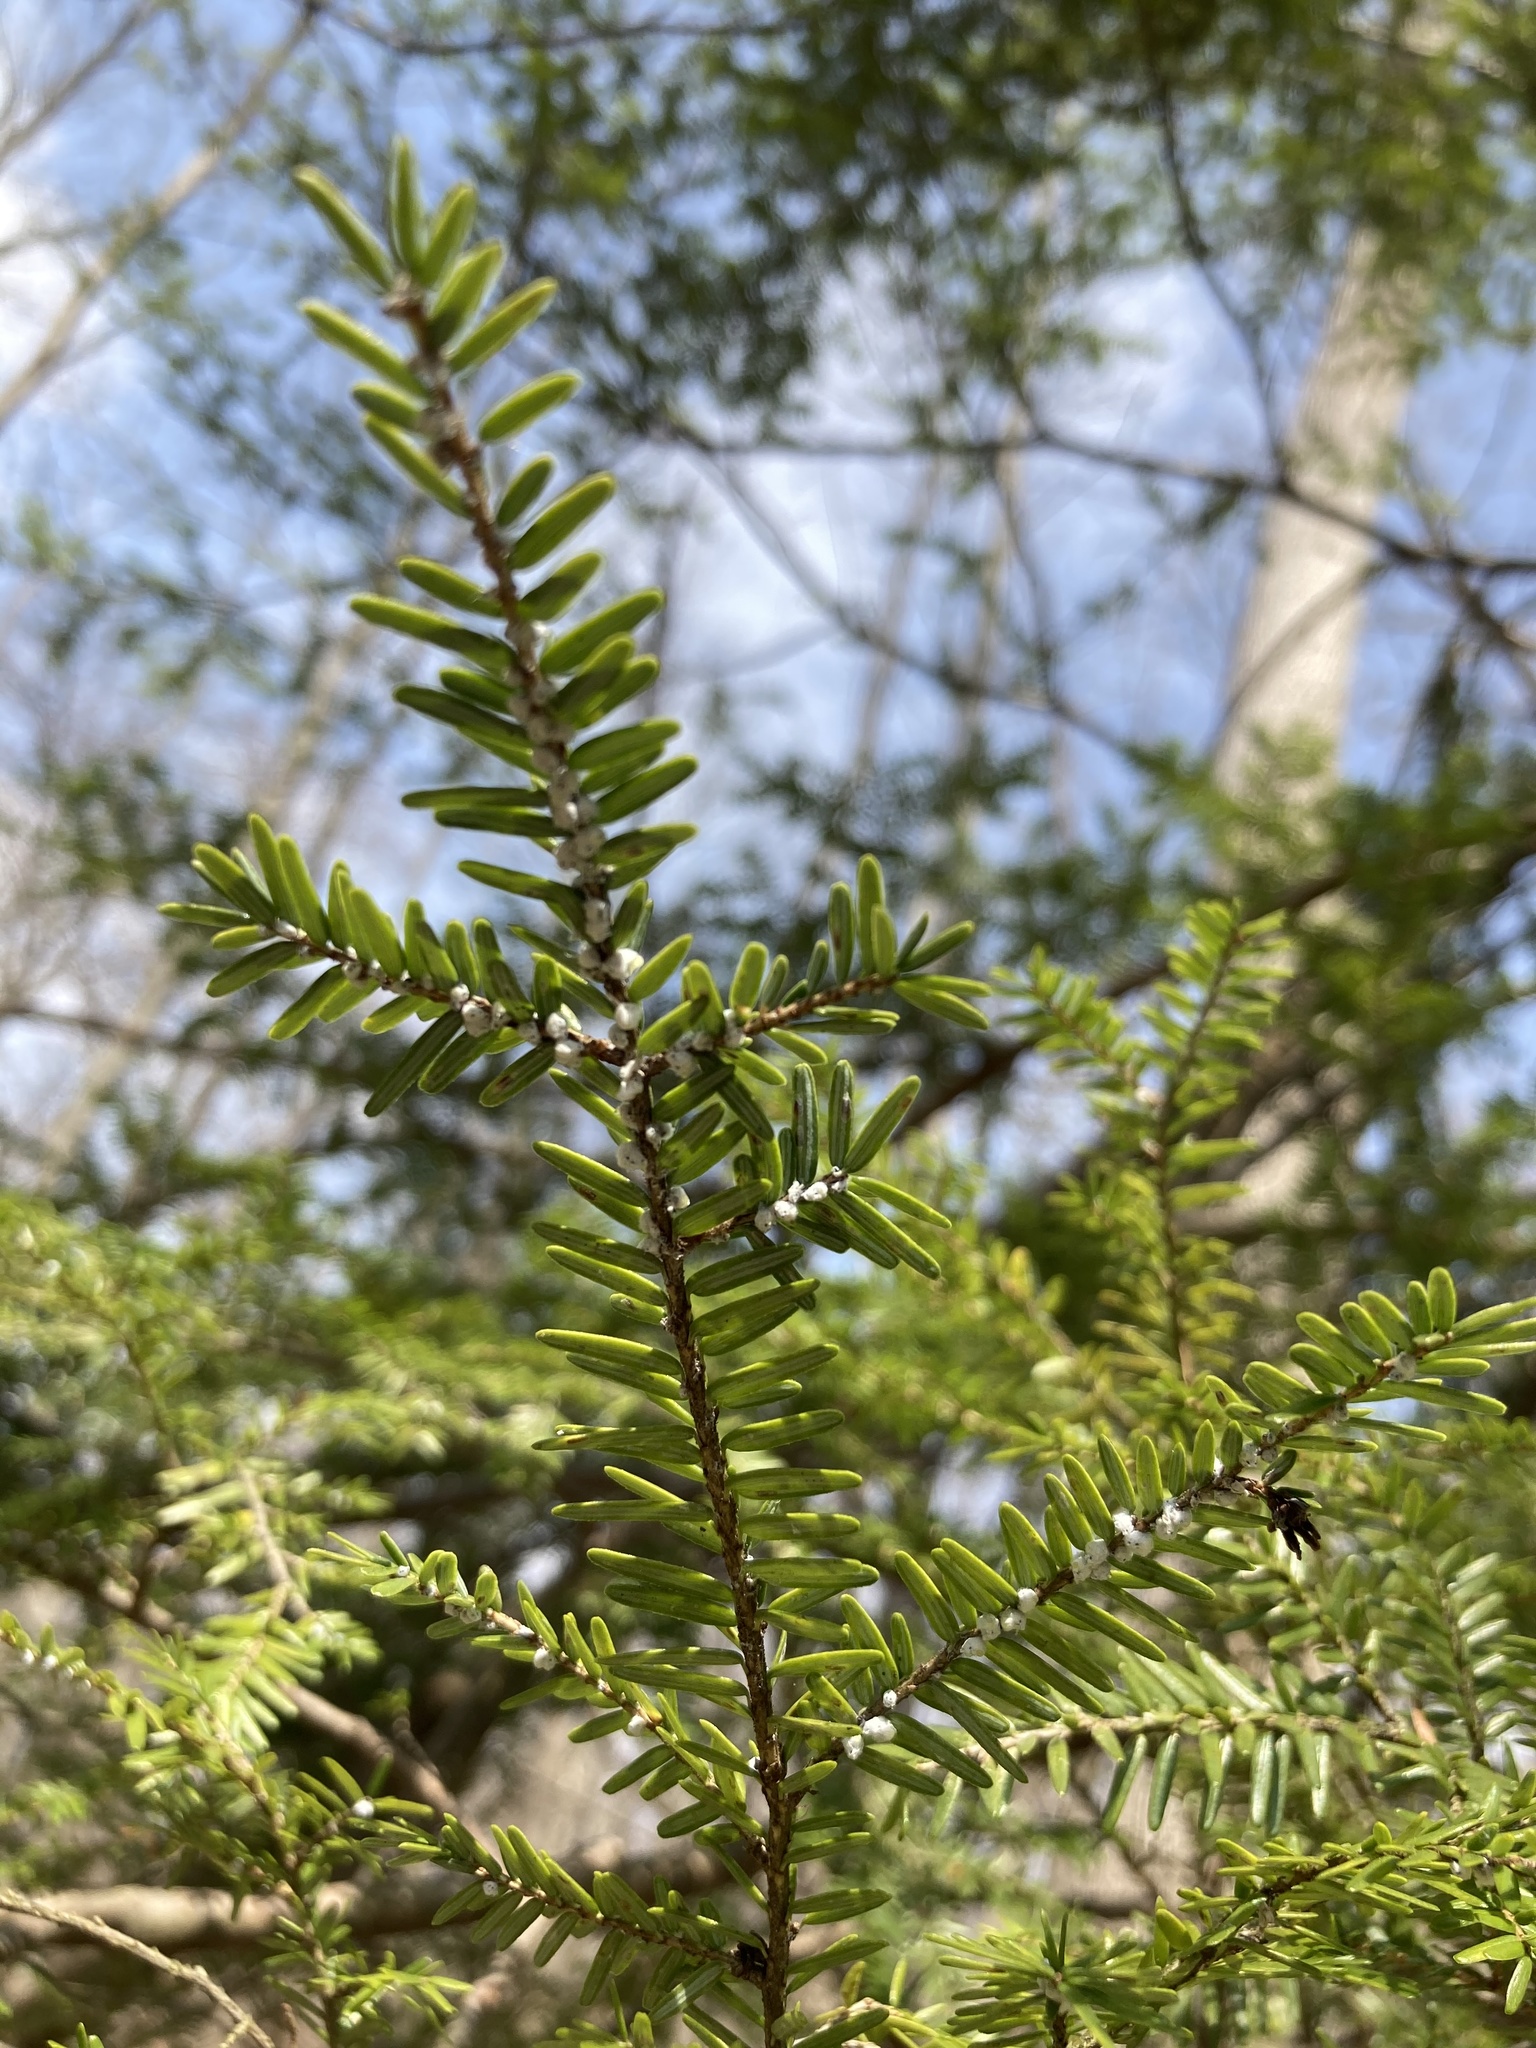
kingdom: Animalia
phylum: Arthropoda
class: Insecta
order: Hemiptera
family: Adelgidae
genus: Adelges
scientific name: Adelges tsugae
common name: Hemlock woolly adelgid
